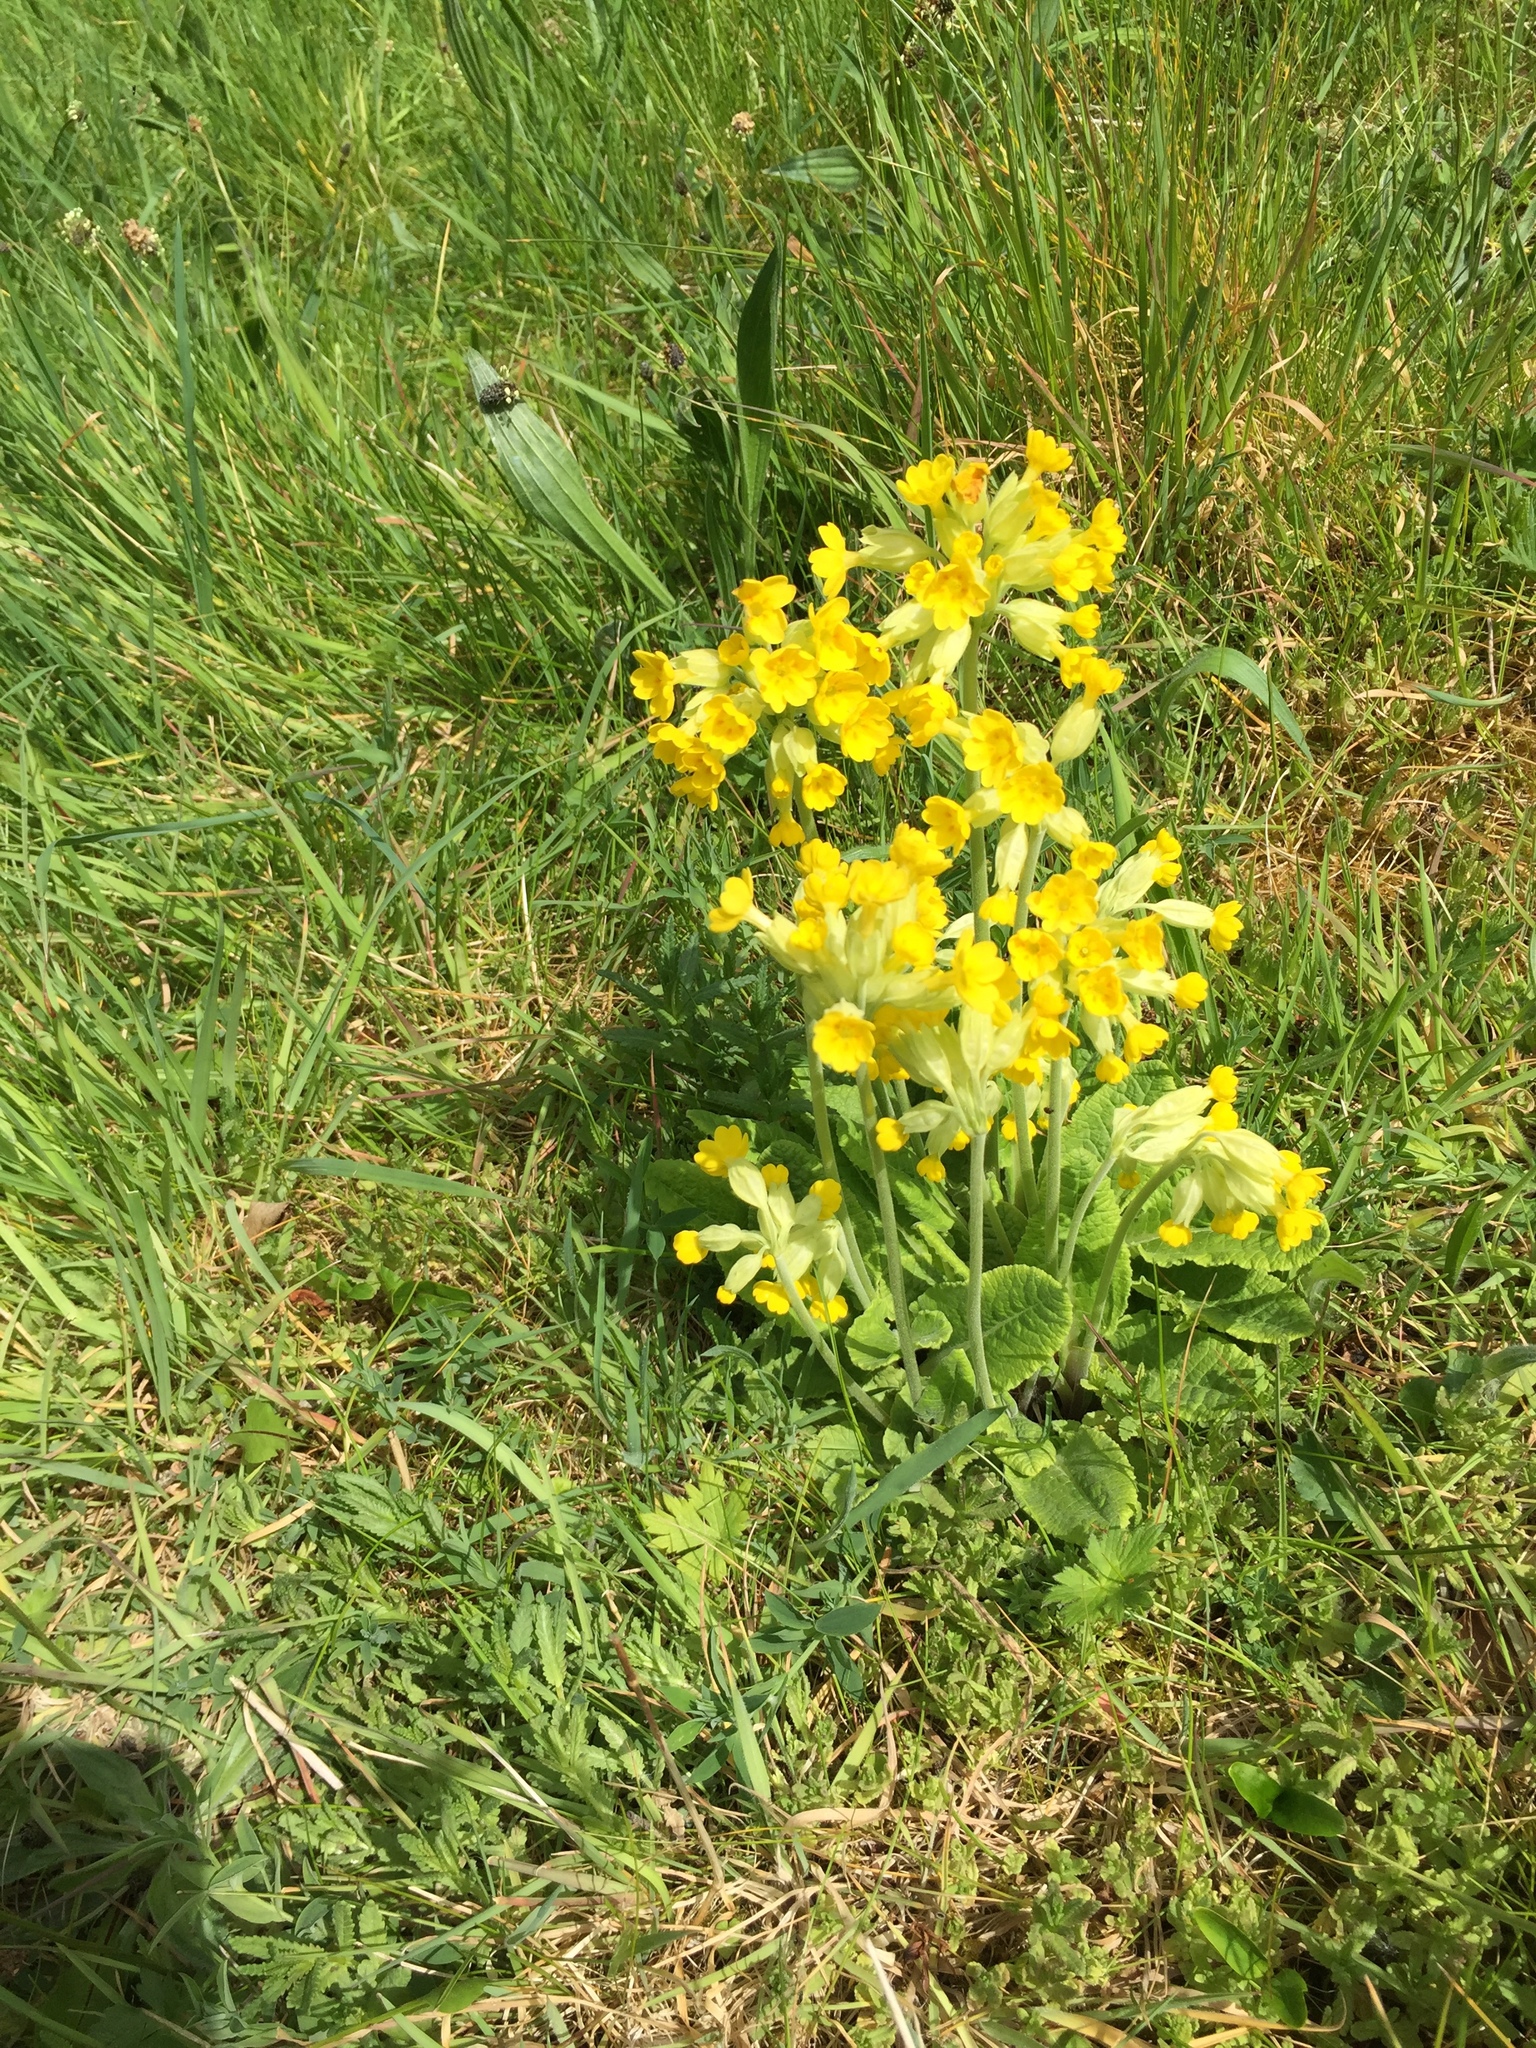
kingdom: Plantae
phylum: Tracheophyta
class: Magnoliopsida
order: Ericales
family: Primulaceae
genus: Primula
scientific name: Primula veris
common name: Cowslip
